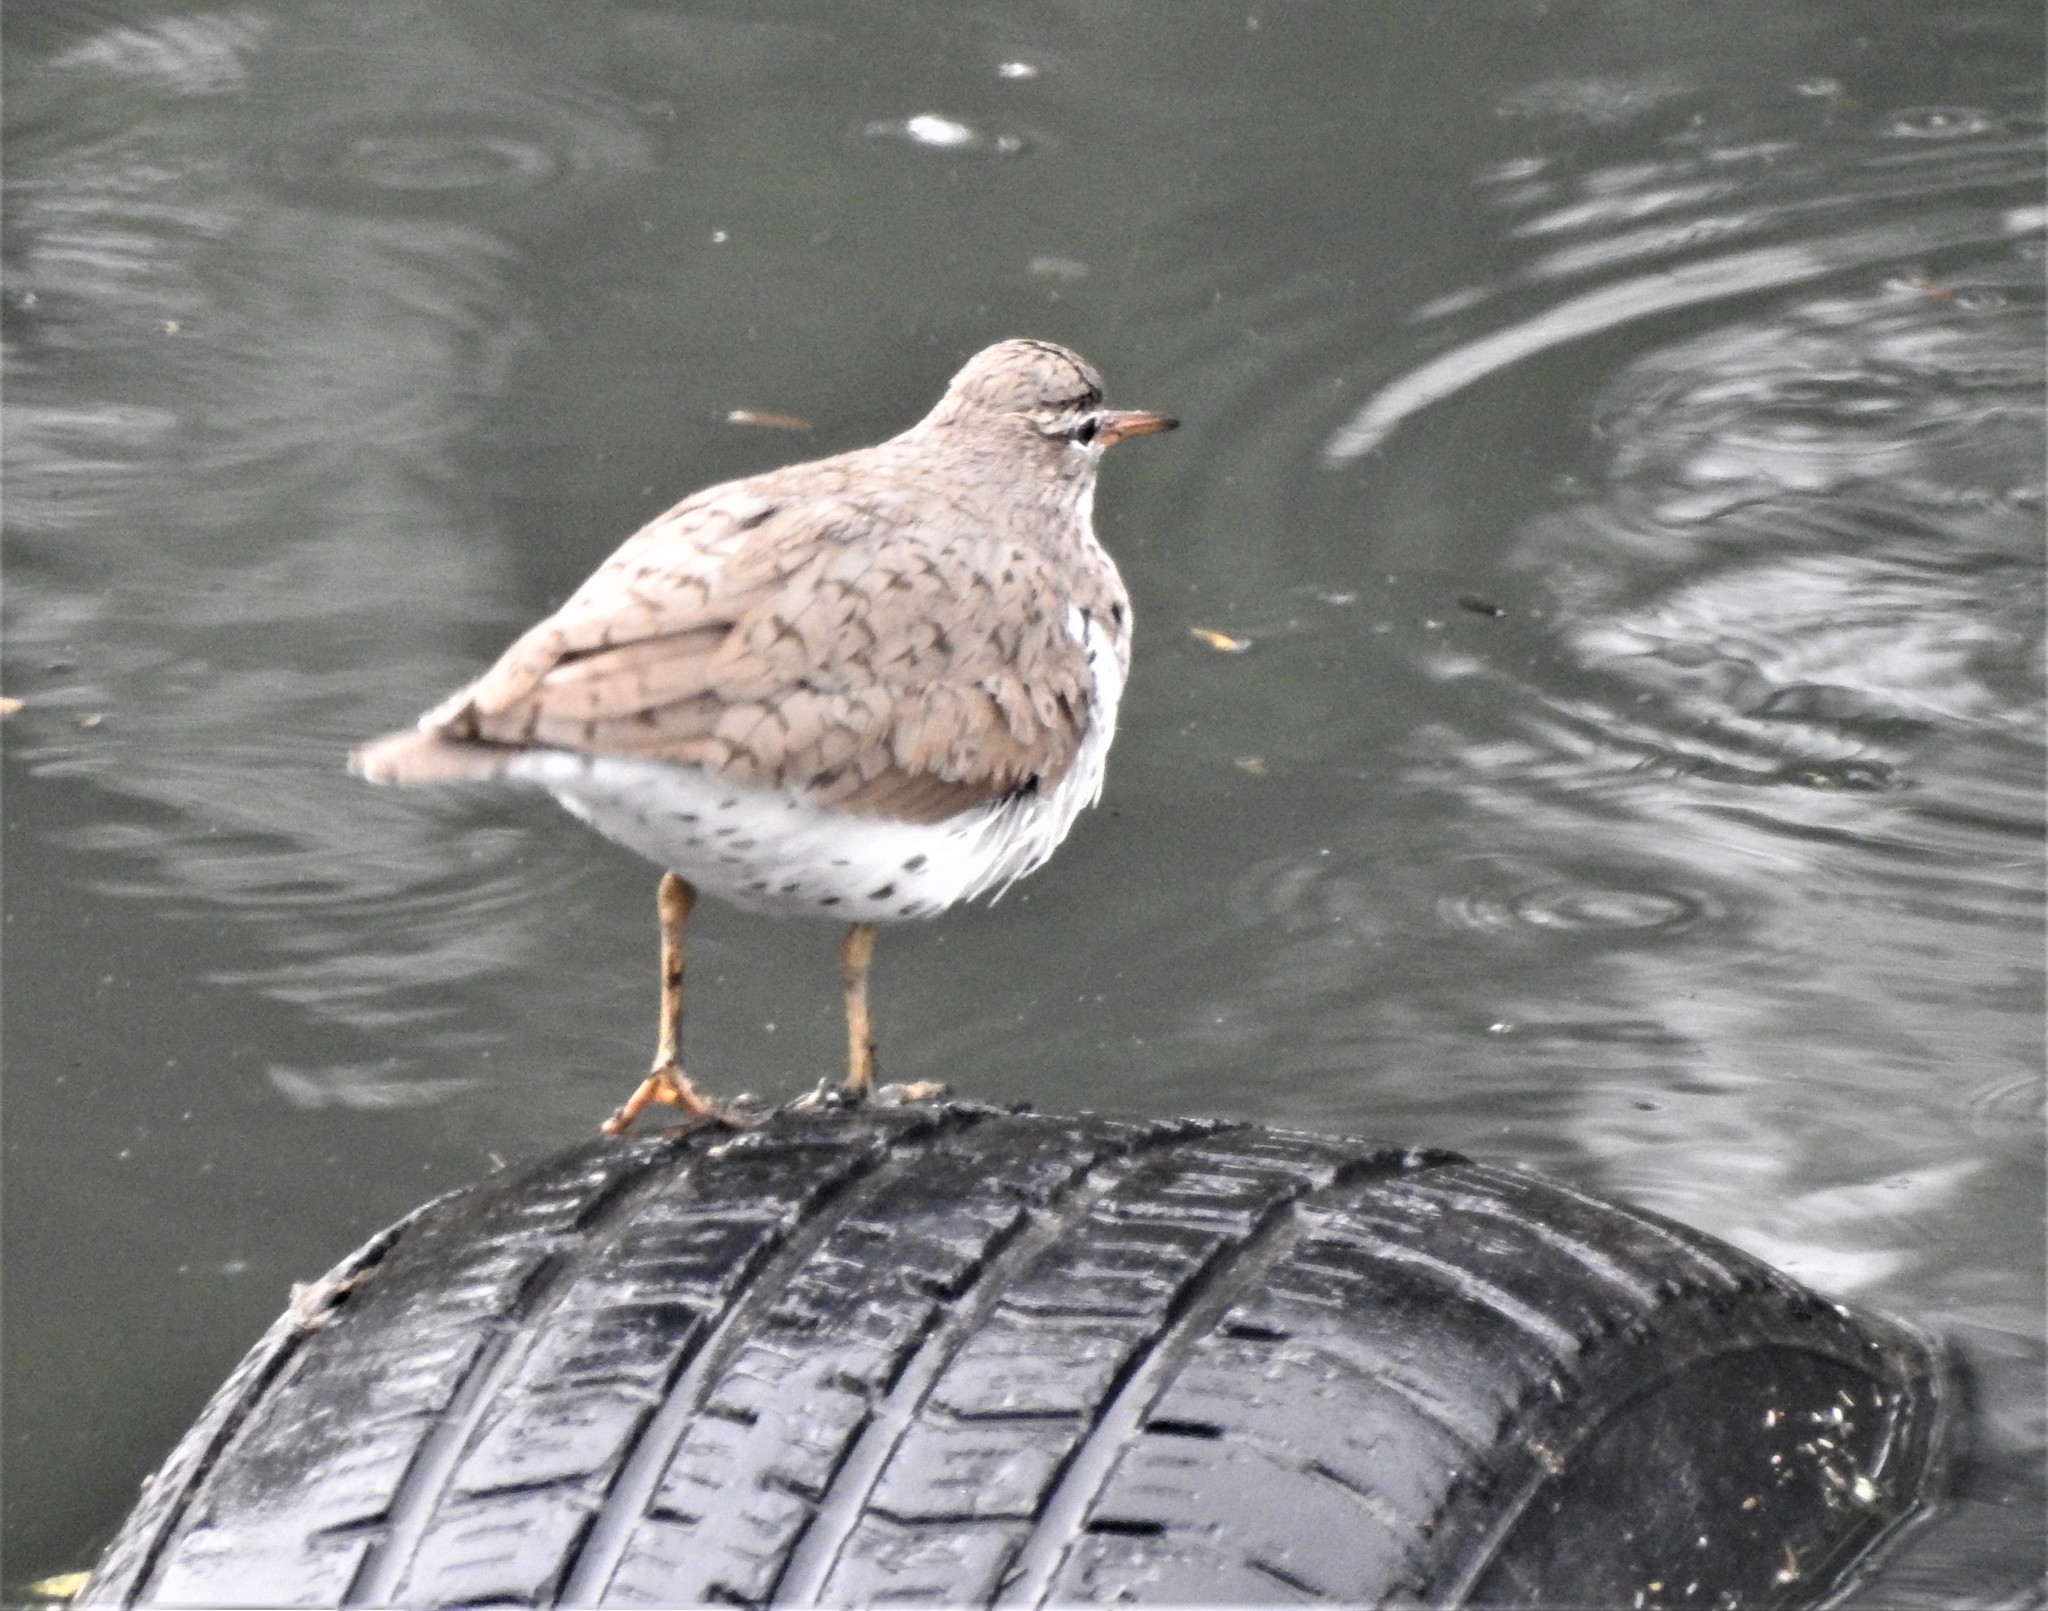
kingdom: Animalia
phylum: Chordata
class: Aves
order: Charadriiformes
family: Scolopacidae
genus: Actitis
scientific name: Actitis macularius
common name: Spotted sandpiper
